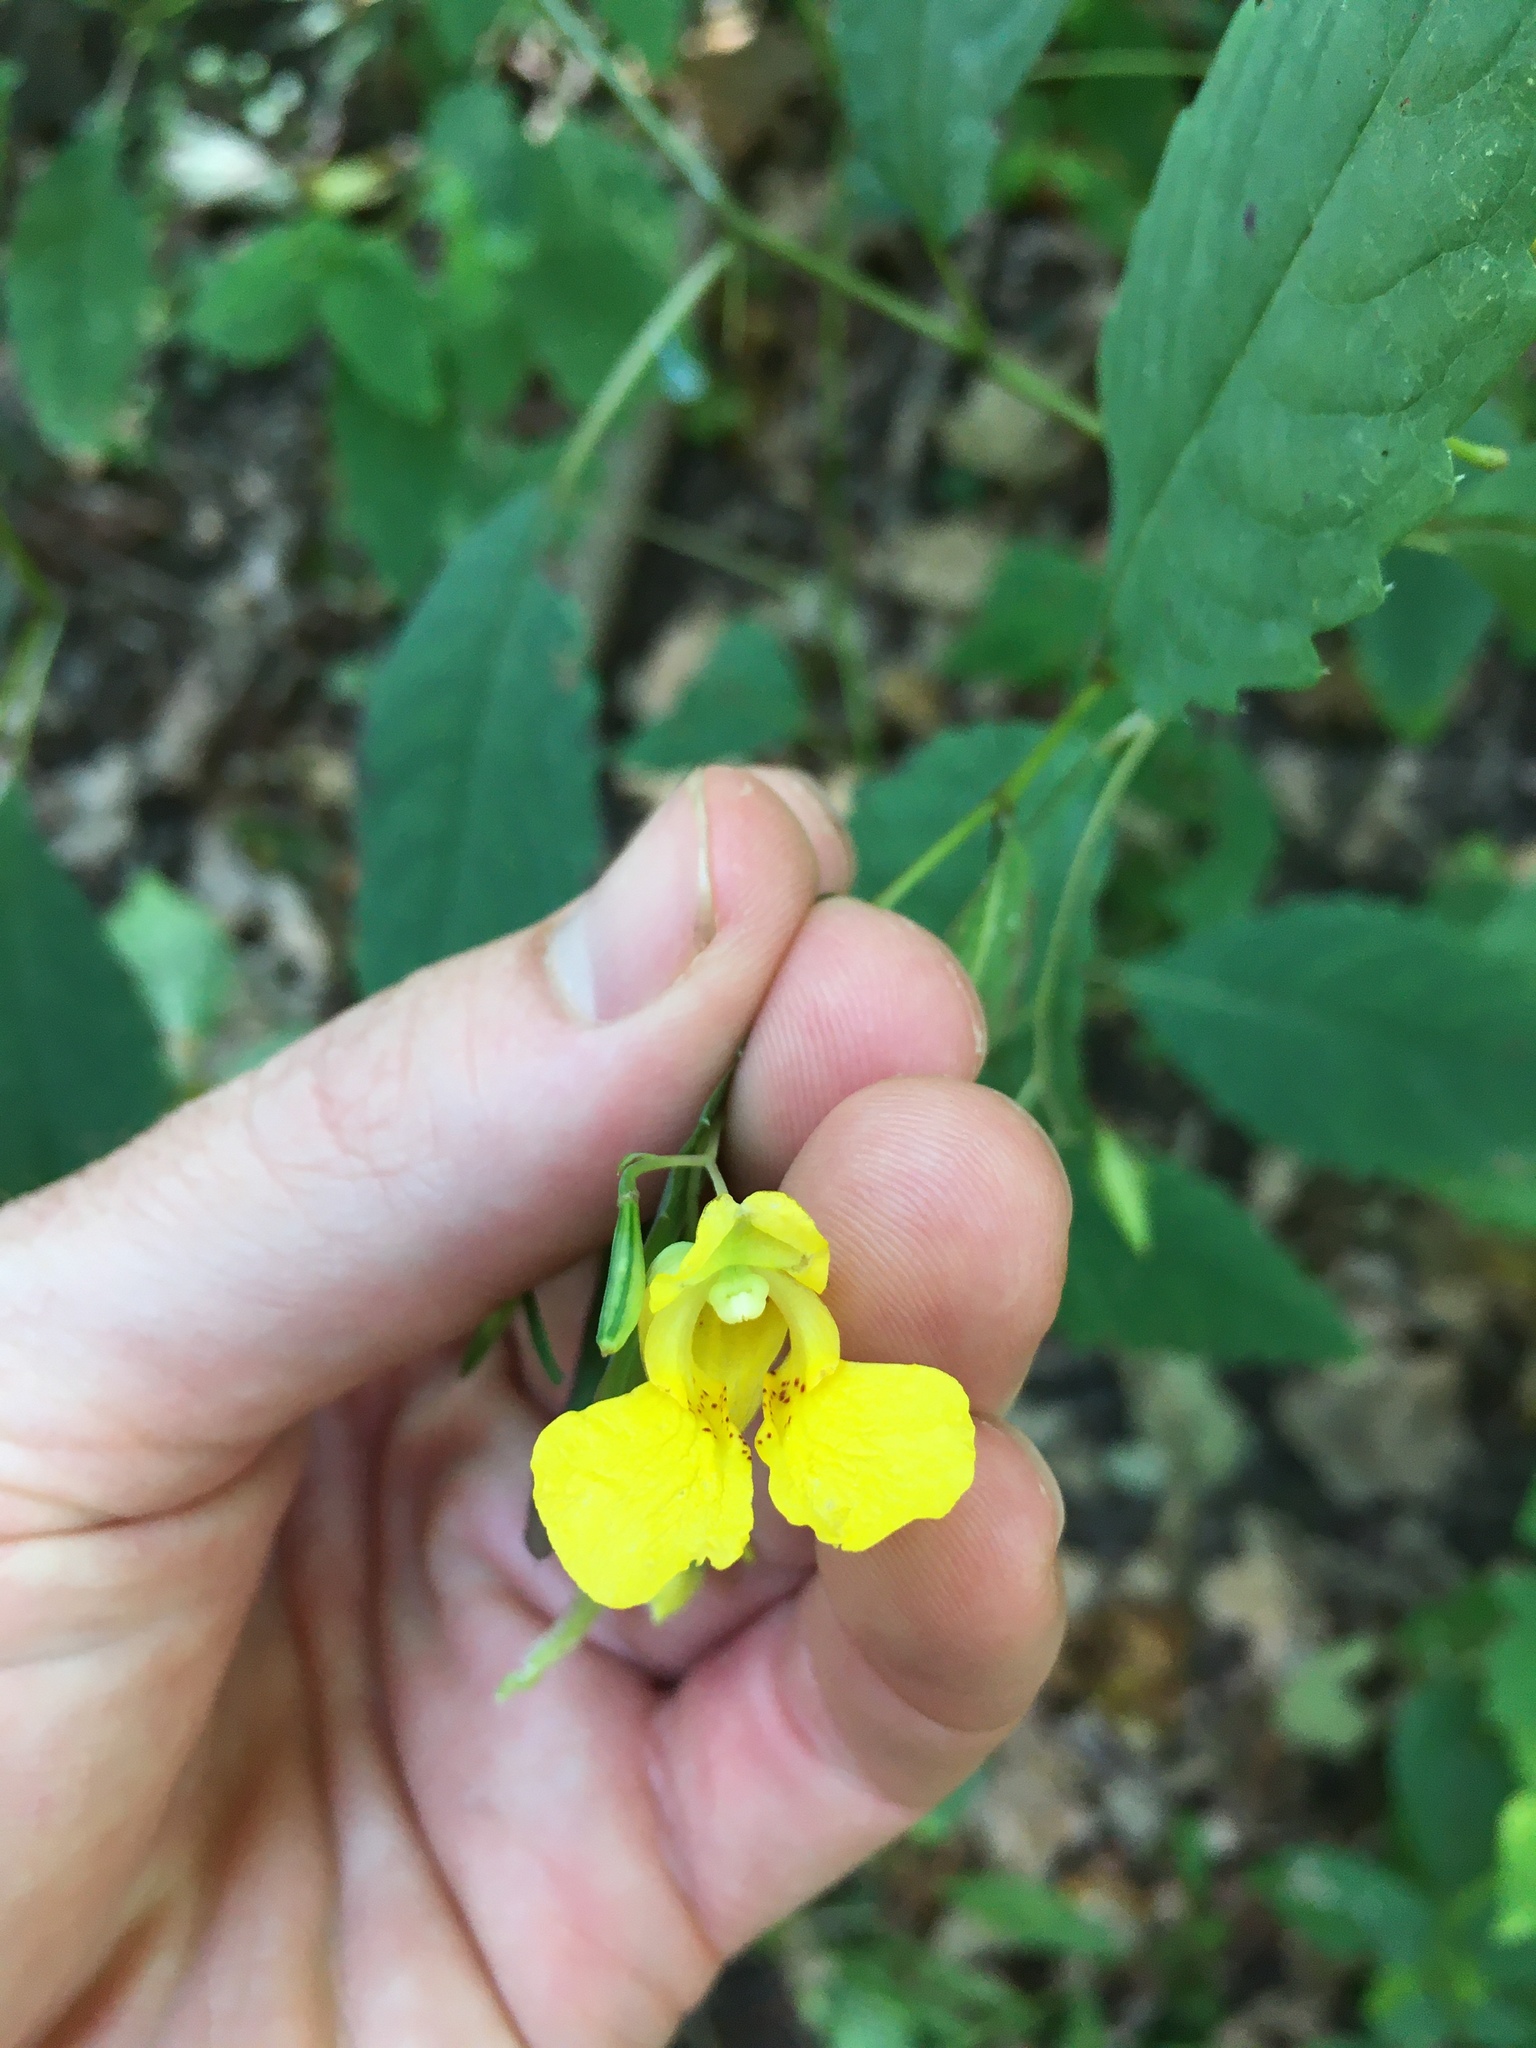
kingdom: Plantae
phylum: Tracheophyta
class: Magnoliopsida
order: Ericales
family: Balsaminaceae
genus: Impatiens
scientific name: Impatiens pallida
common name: Pale snapweed
